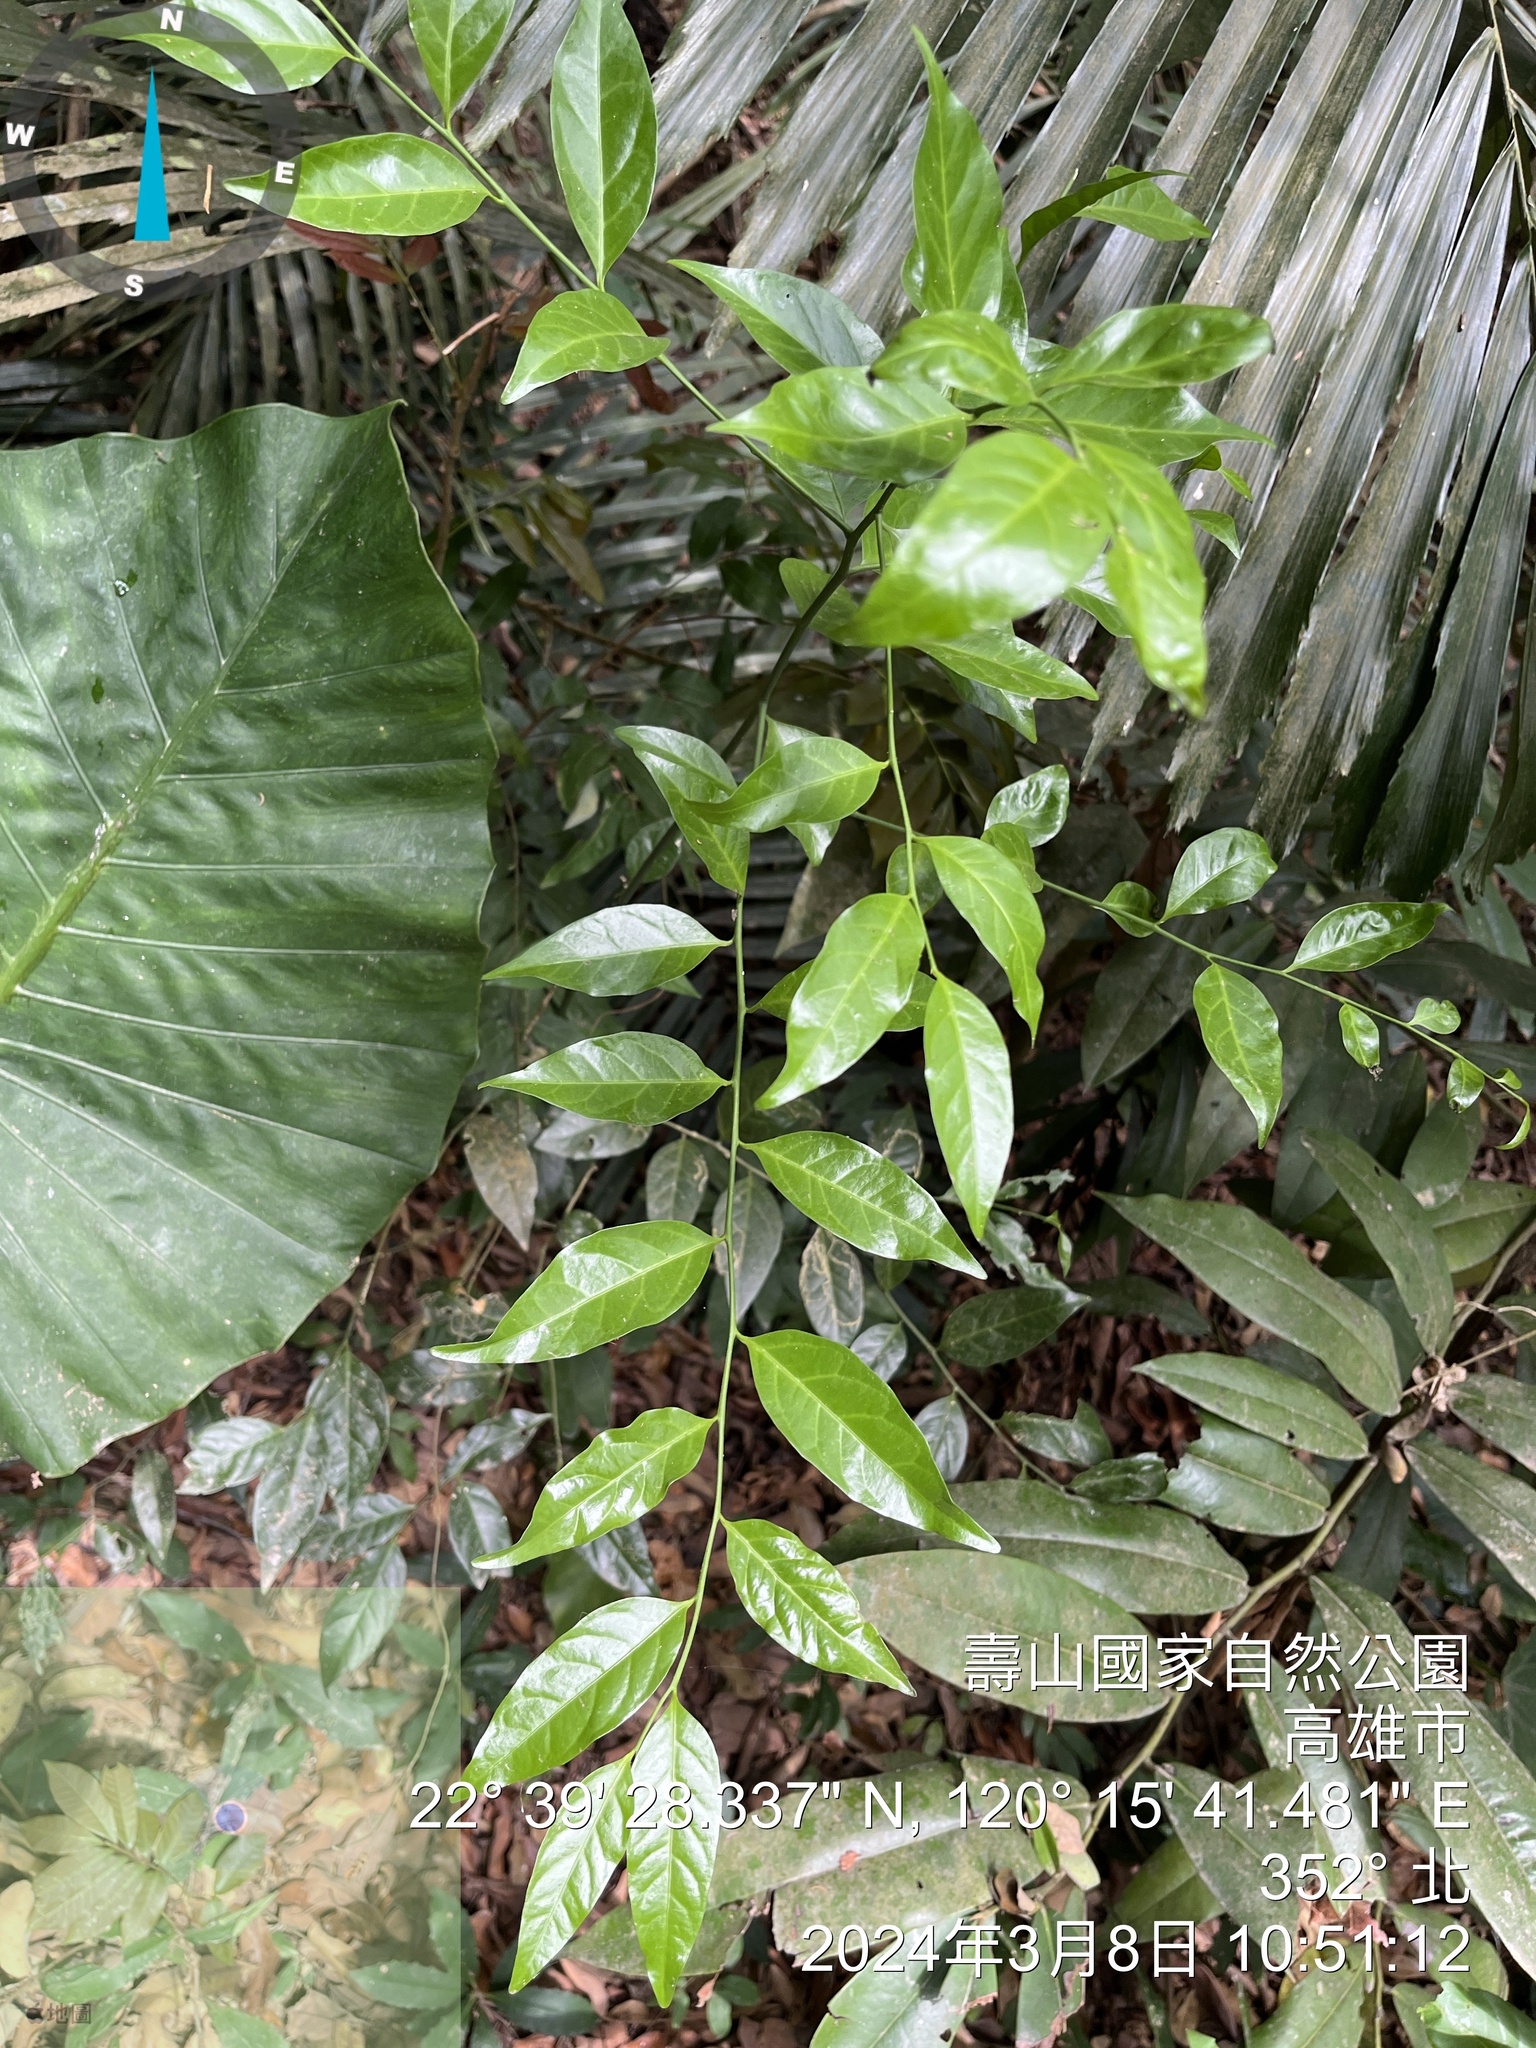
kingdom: Plantae
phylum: Tracheophyta
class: Magnoliopsida
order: Santalales
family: Opiliaceae
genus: Champereia
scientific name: Champereia manillana
